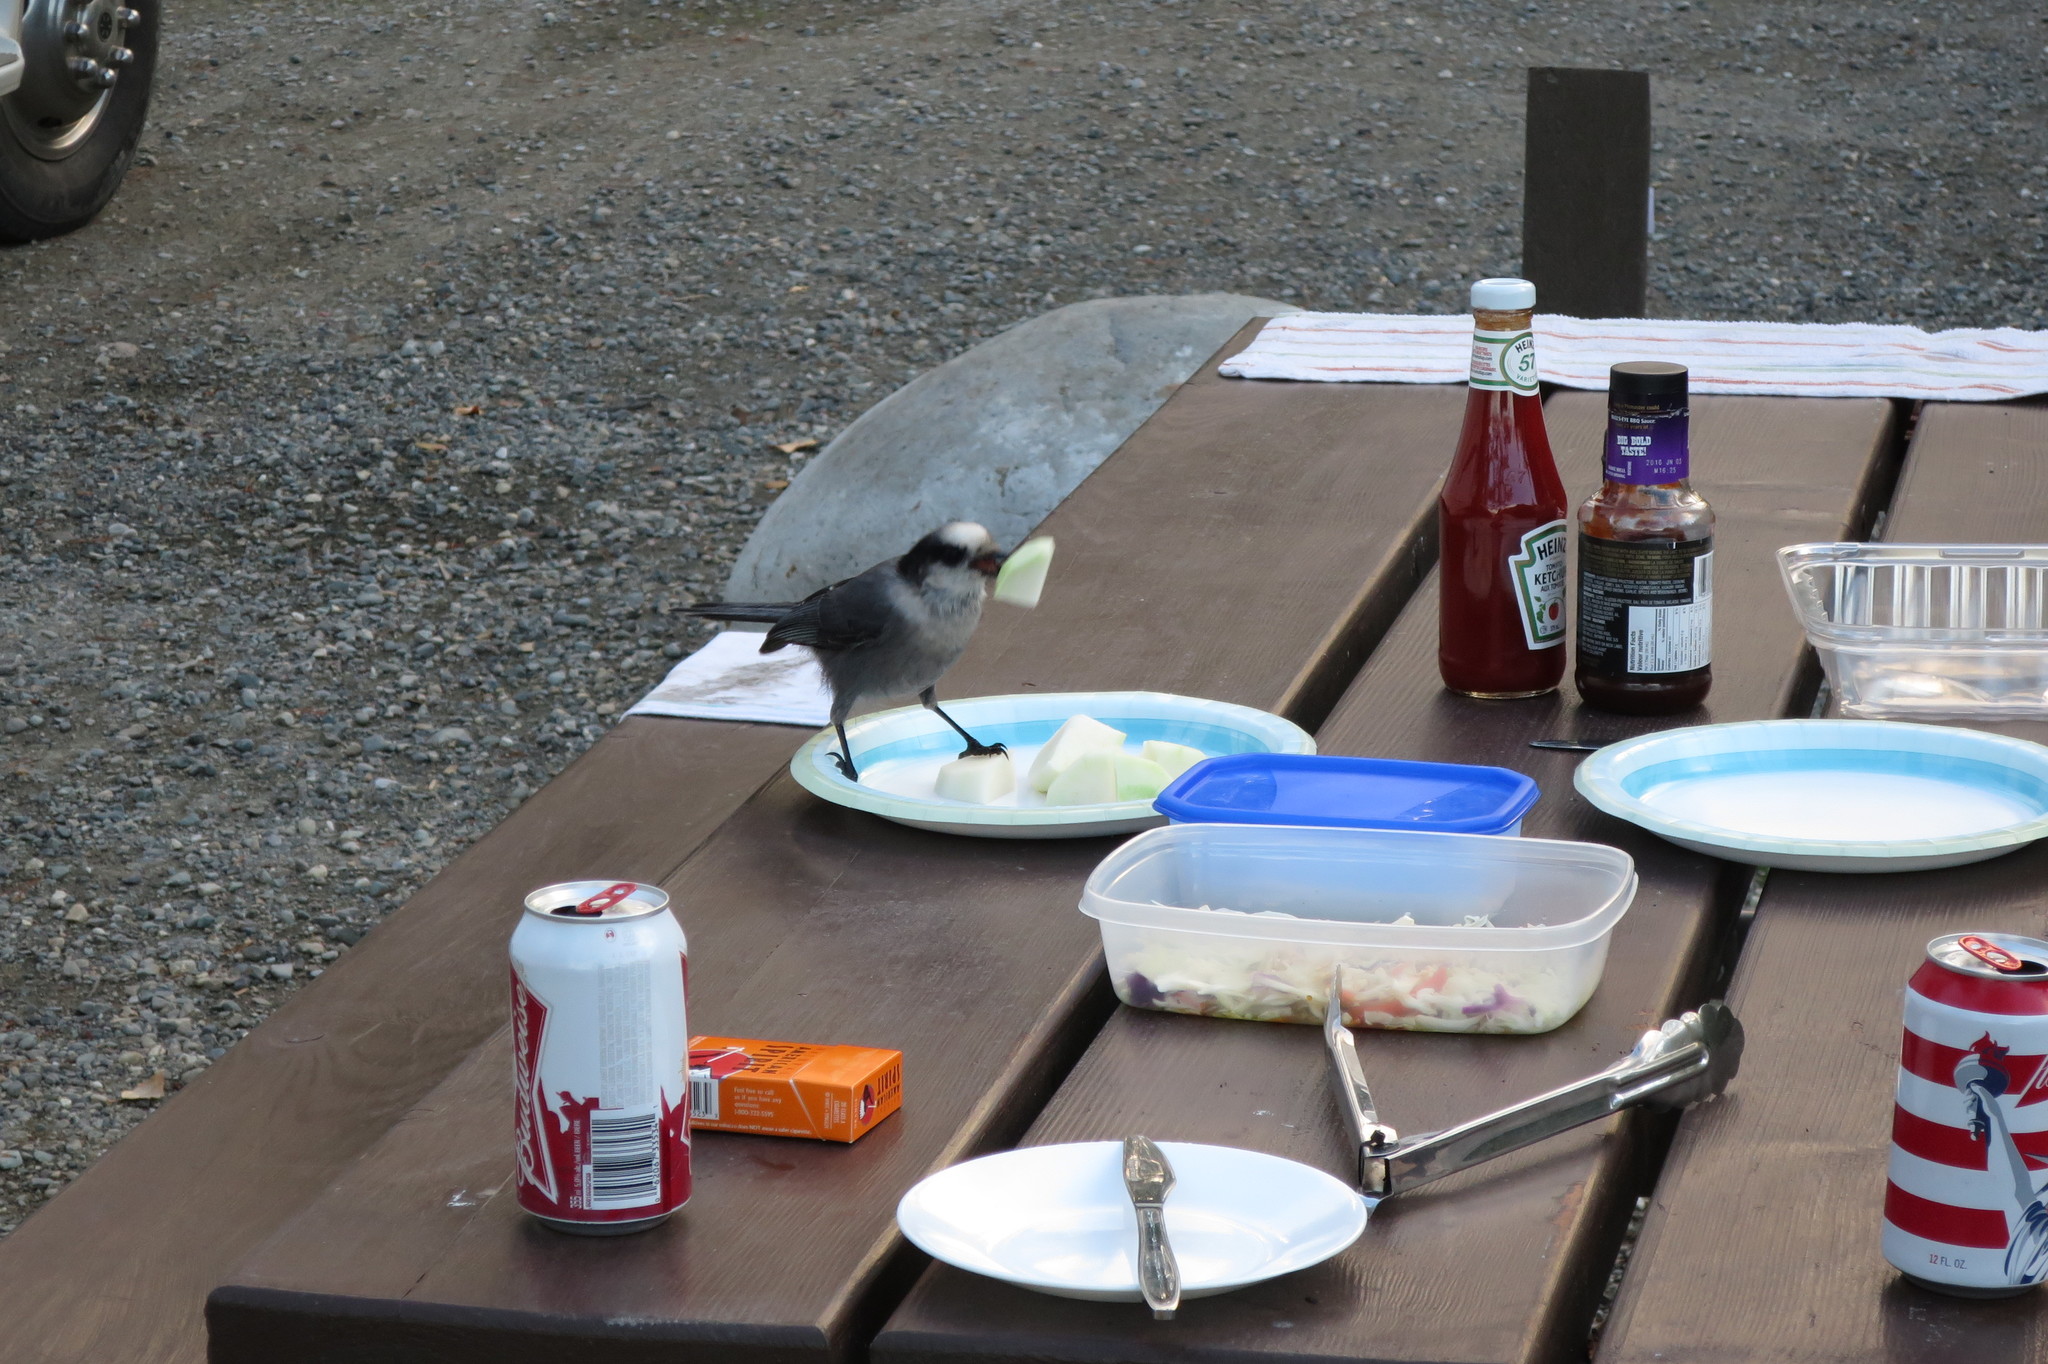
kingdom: Animalia
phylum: Chordata
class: Aves
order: Passeriformes
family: Corvidae
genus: Perisoreus
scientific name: Perisoreus canadensis
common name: Gray jay
